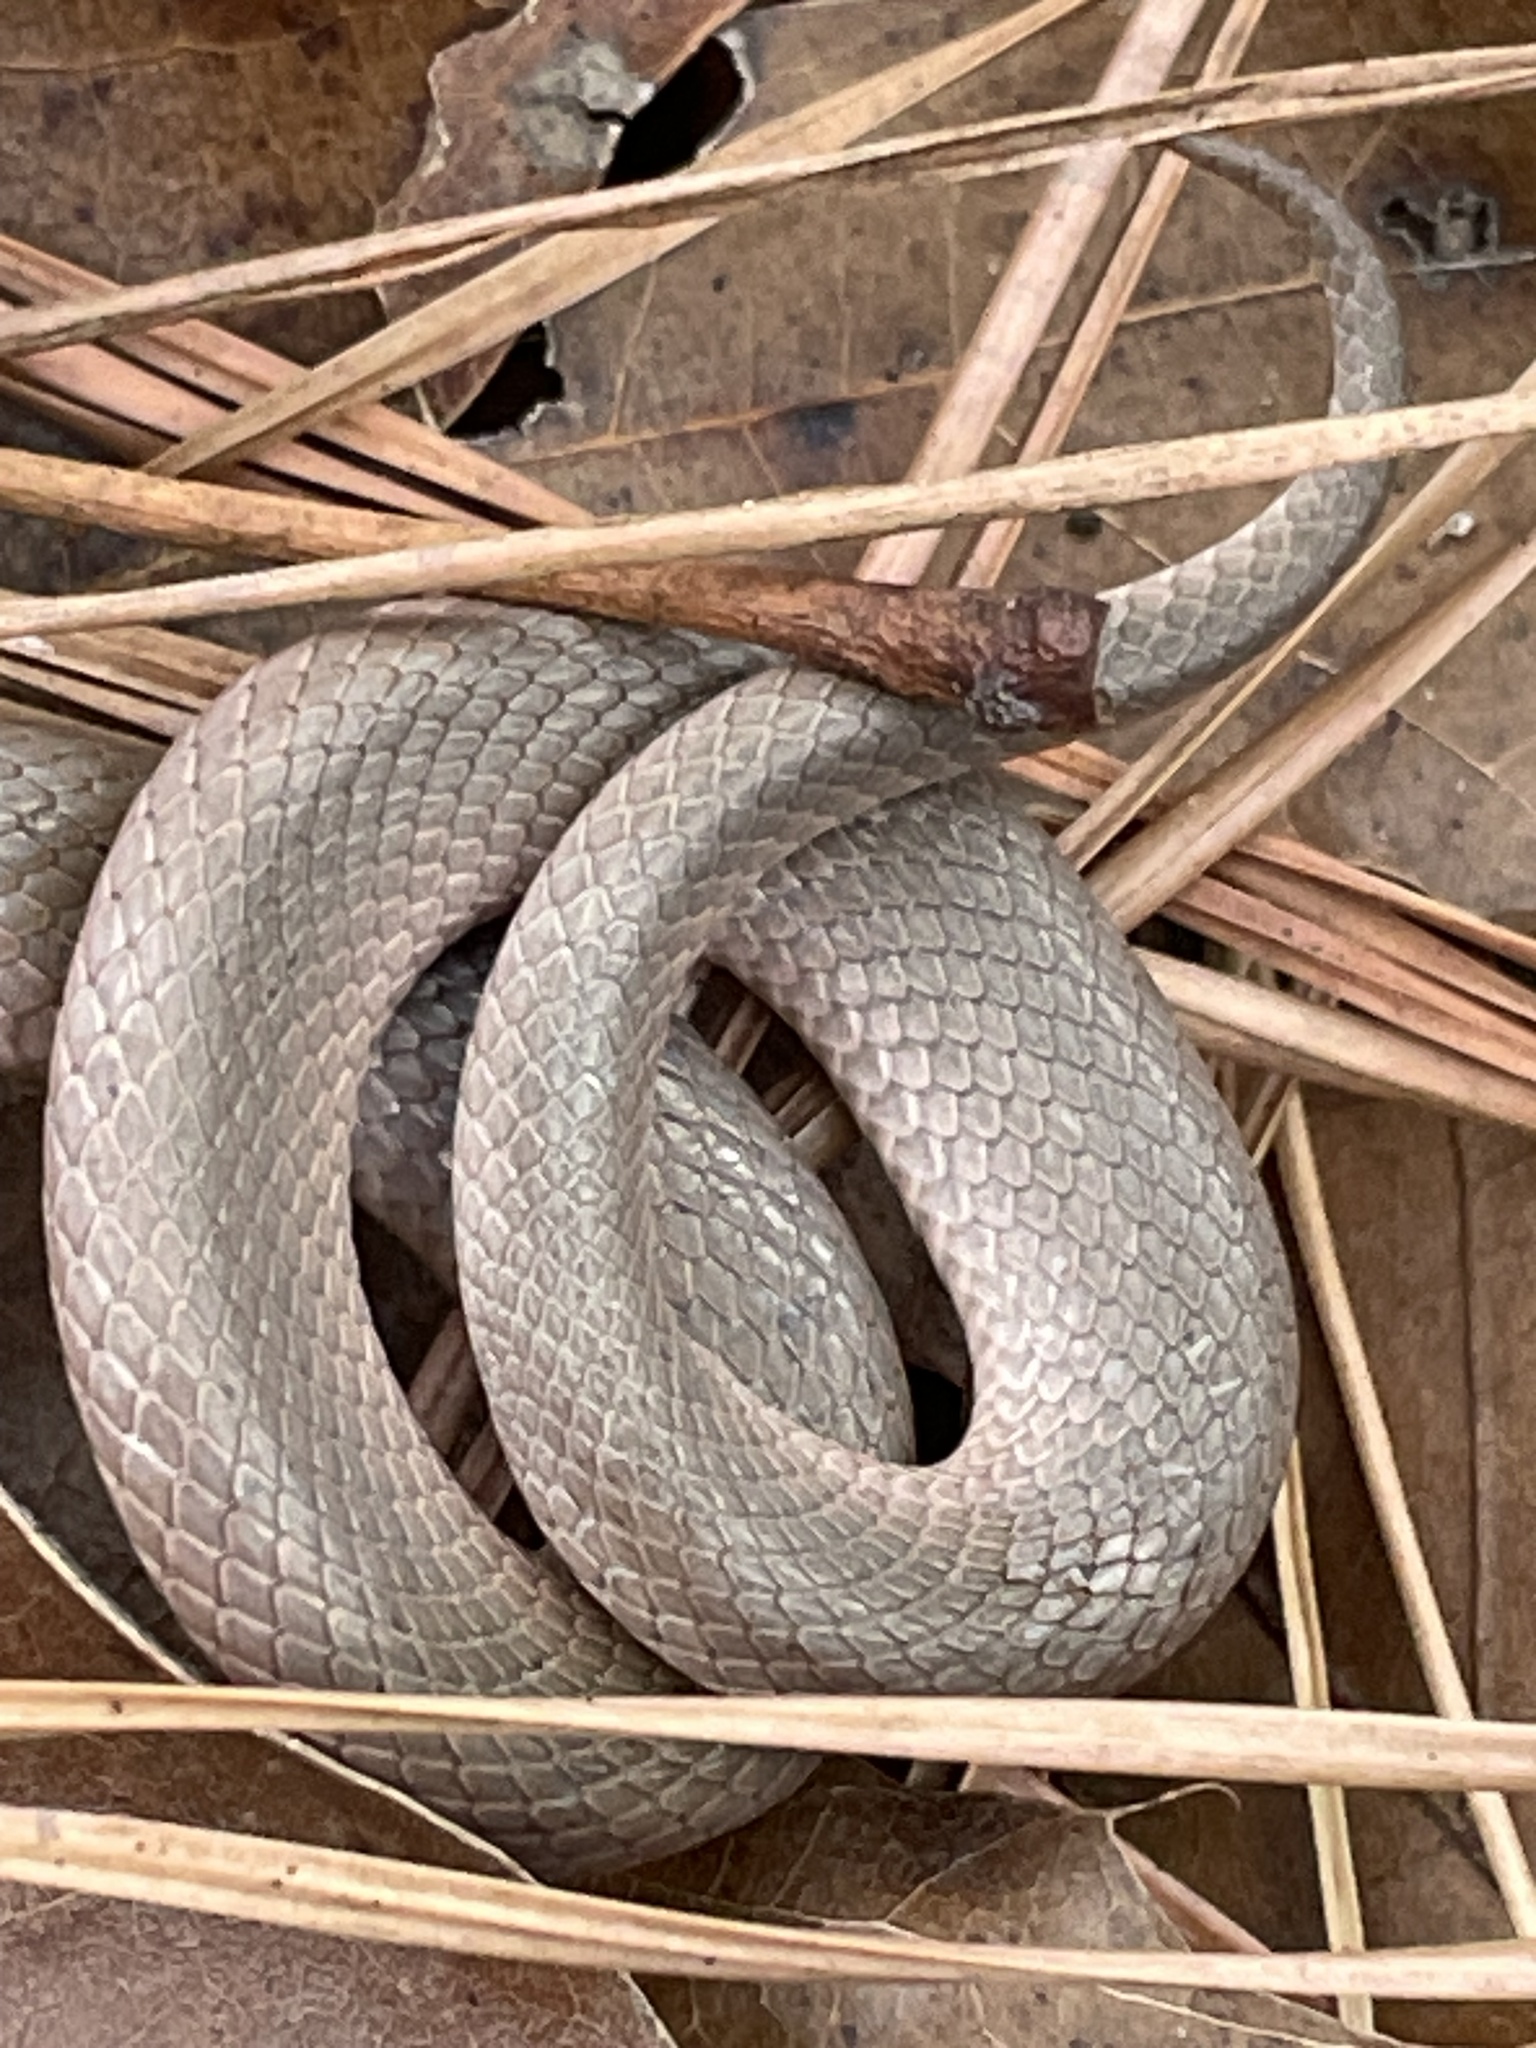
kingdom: Animalia
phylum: Chordata
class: Squamata
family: Colubridae
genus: Virginia
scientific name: Virginia valeriae
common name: Smooth earth snake
